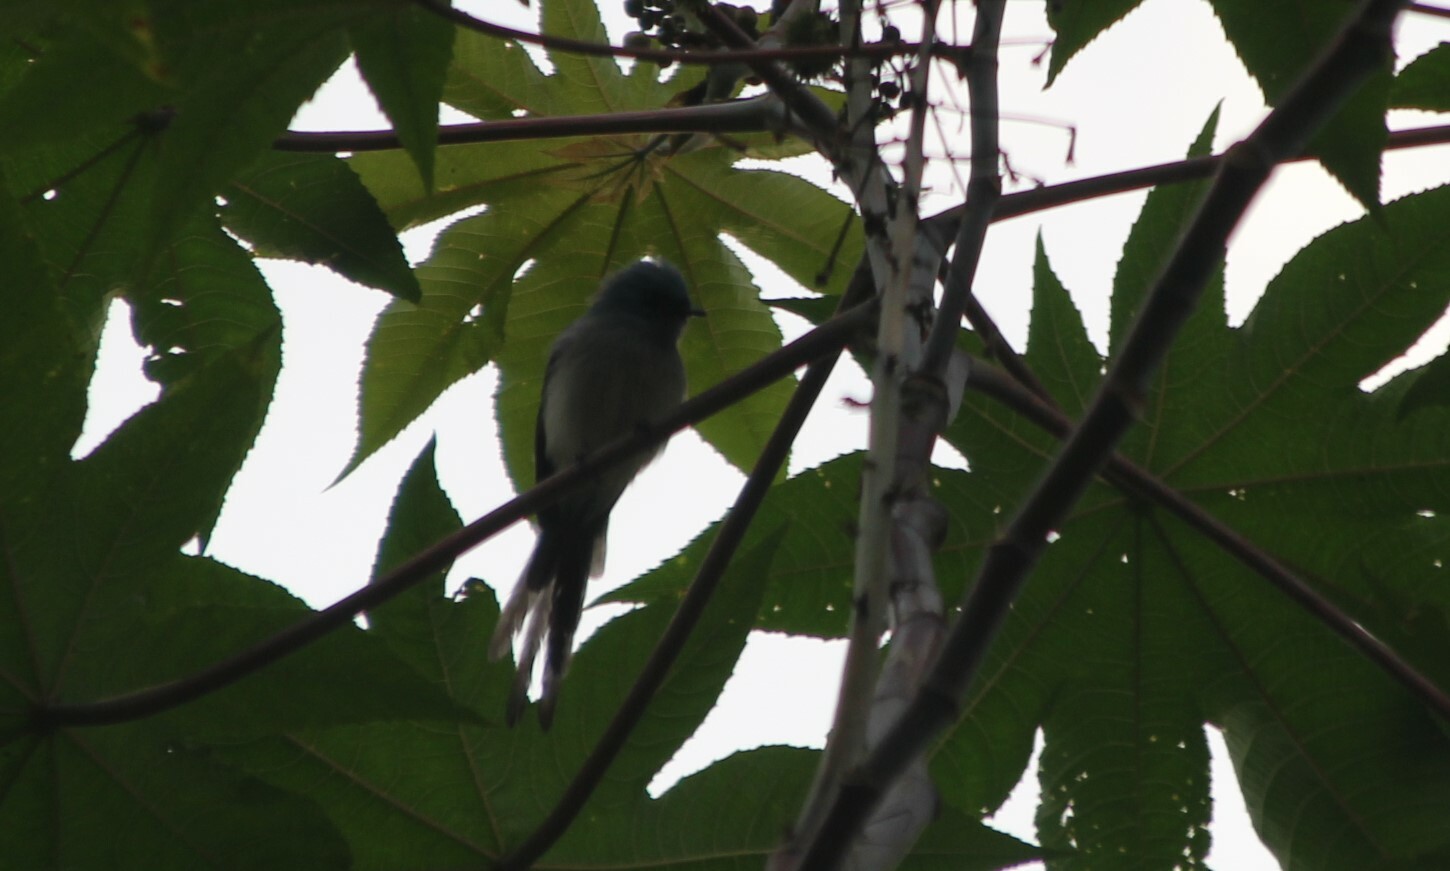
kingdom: Animalia
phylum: Chordata
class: Aves
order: Passeriformes
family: Stenostiridae
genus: Elminia
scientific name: Elminia longicauda
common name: African blue flycatcher
